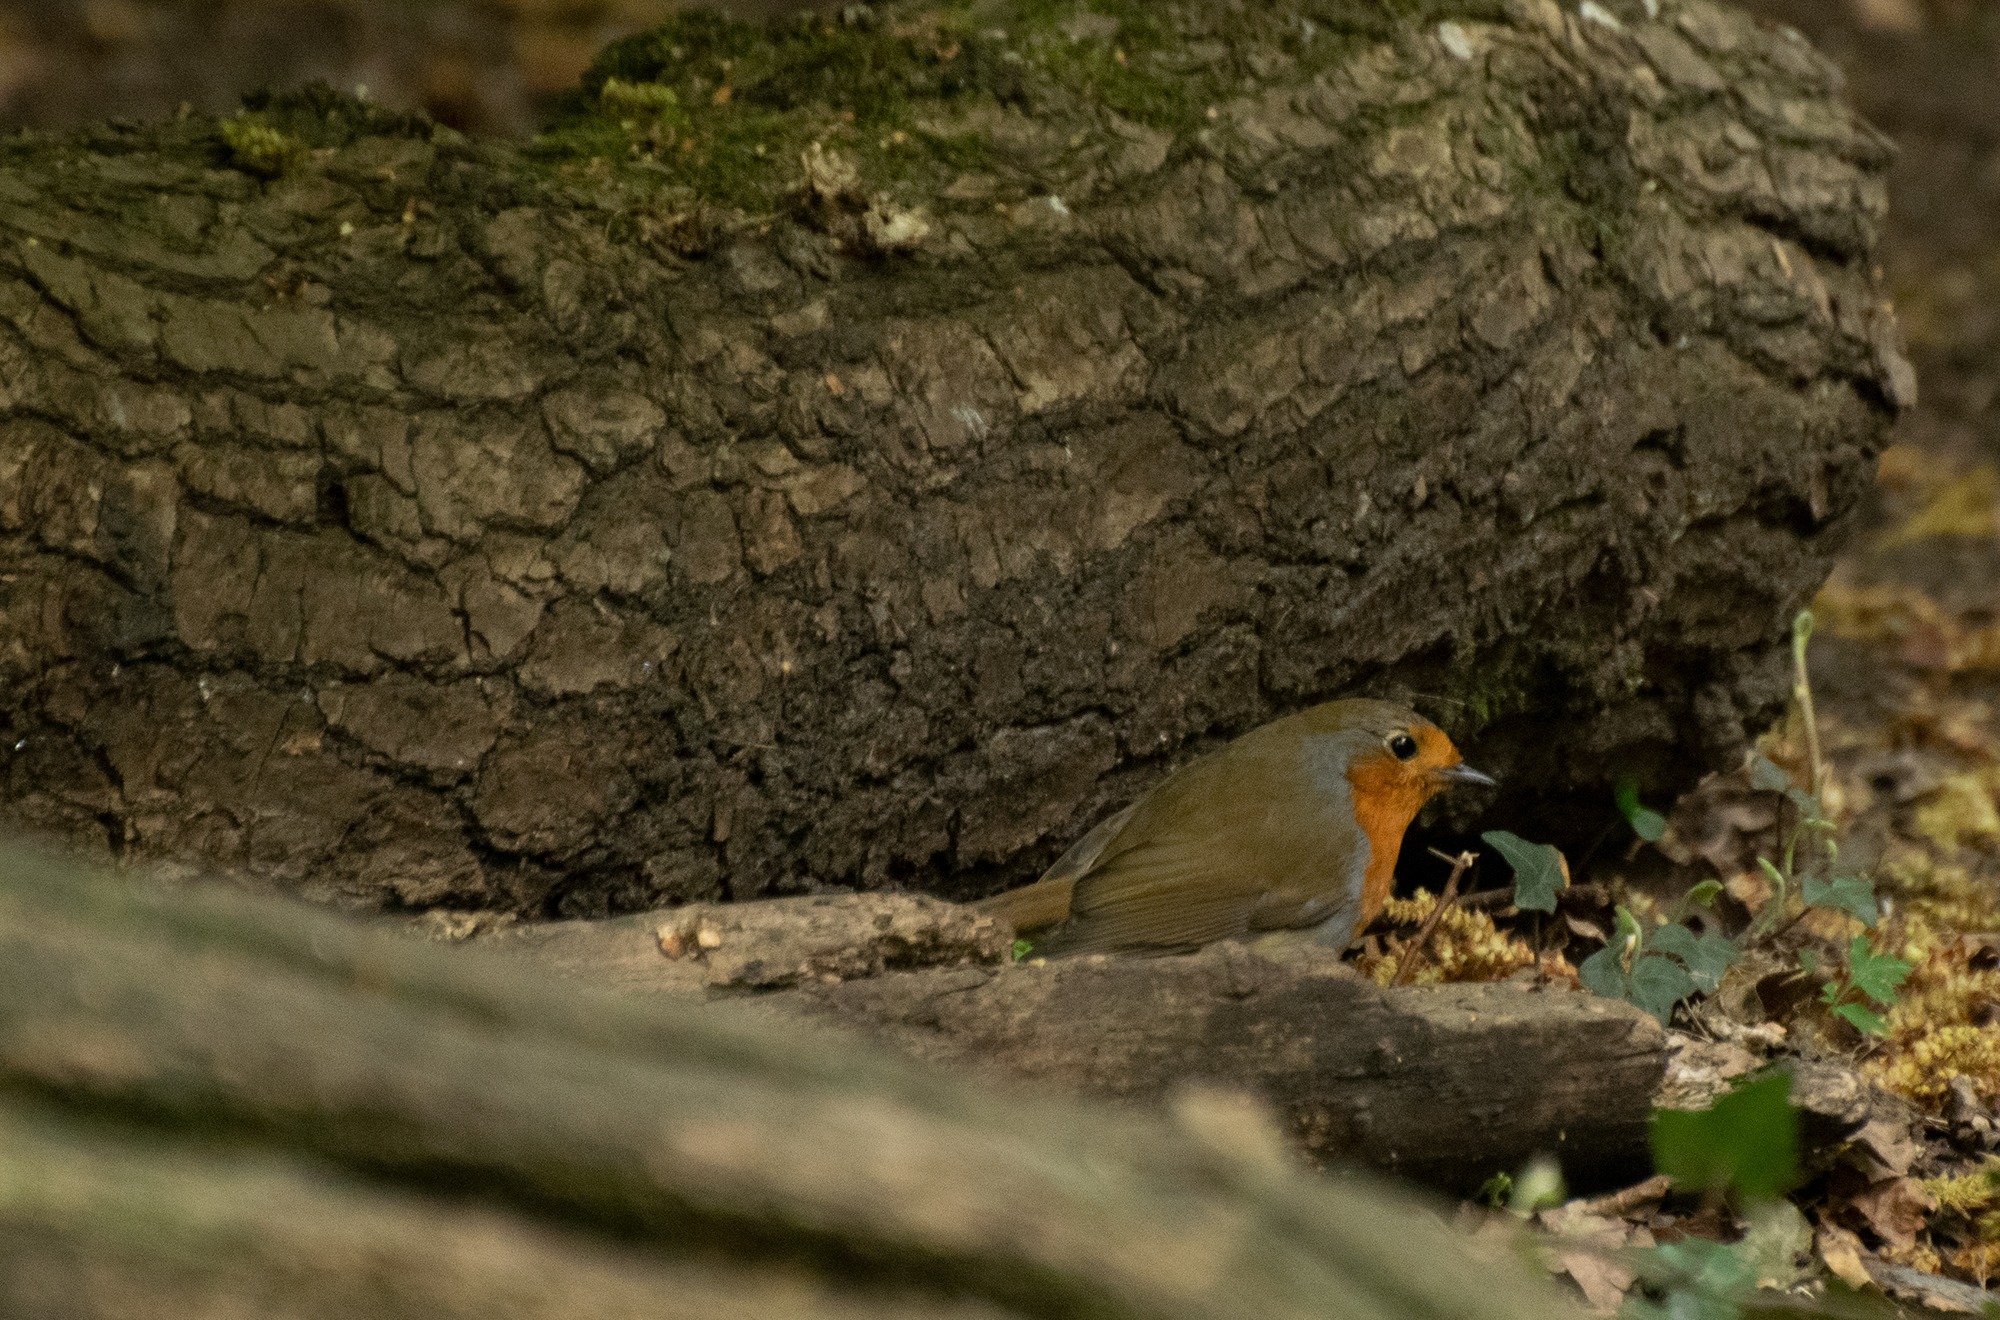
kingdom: Animalia
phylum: Chordata
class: Aves
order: Passeriformes
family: Muscicapidae
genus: Erithacus
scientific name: Erithacus rubecula
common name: European robin
